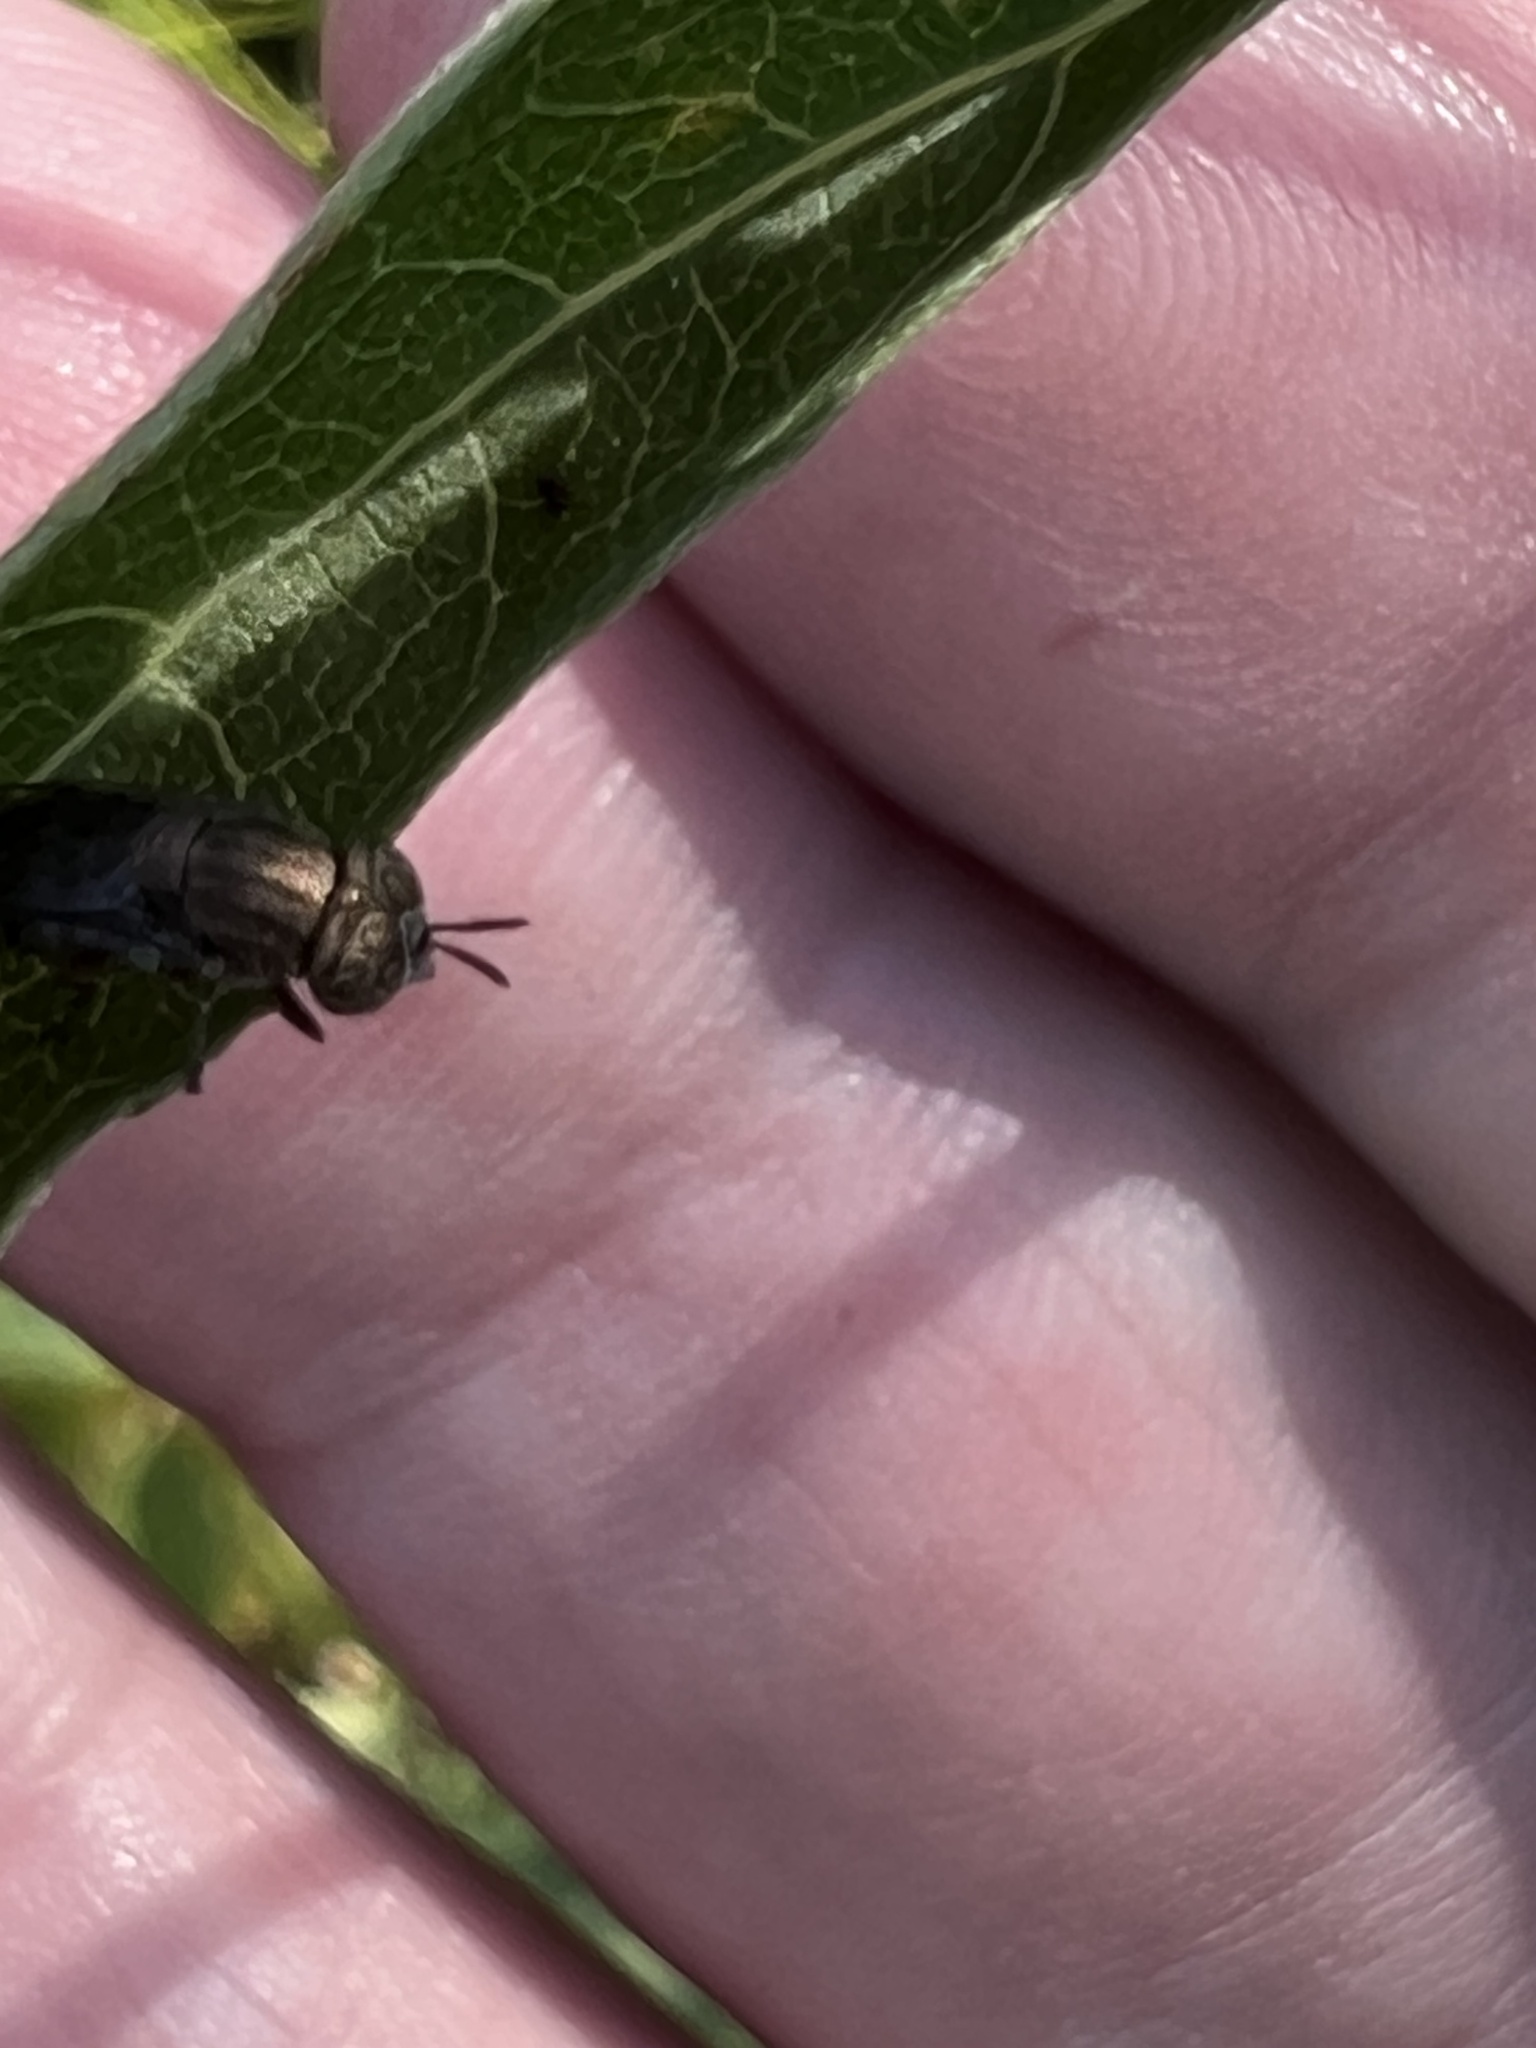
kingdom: Animalia
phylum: Arthropoda
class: Insecta
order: Diptera
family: Syrphidae
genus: Orthonevra
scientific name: Orthonevra nitida
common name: Wavy mucksucker
